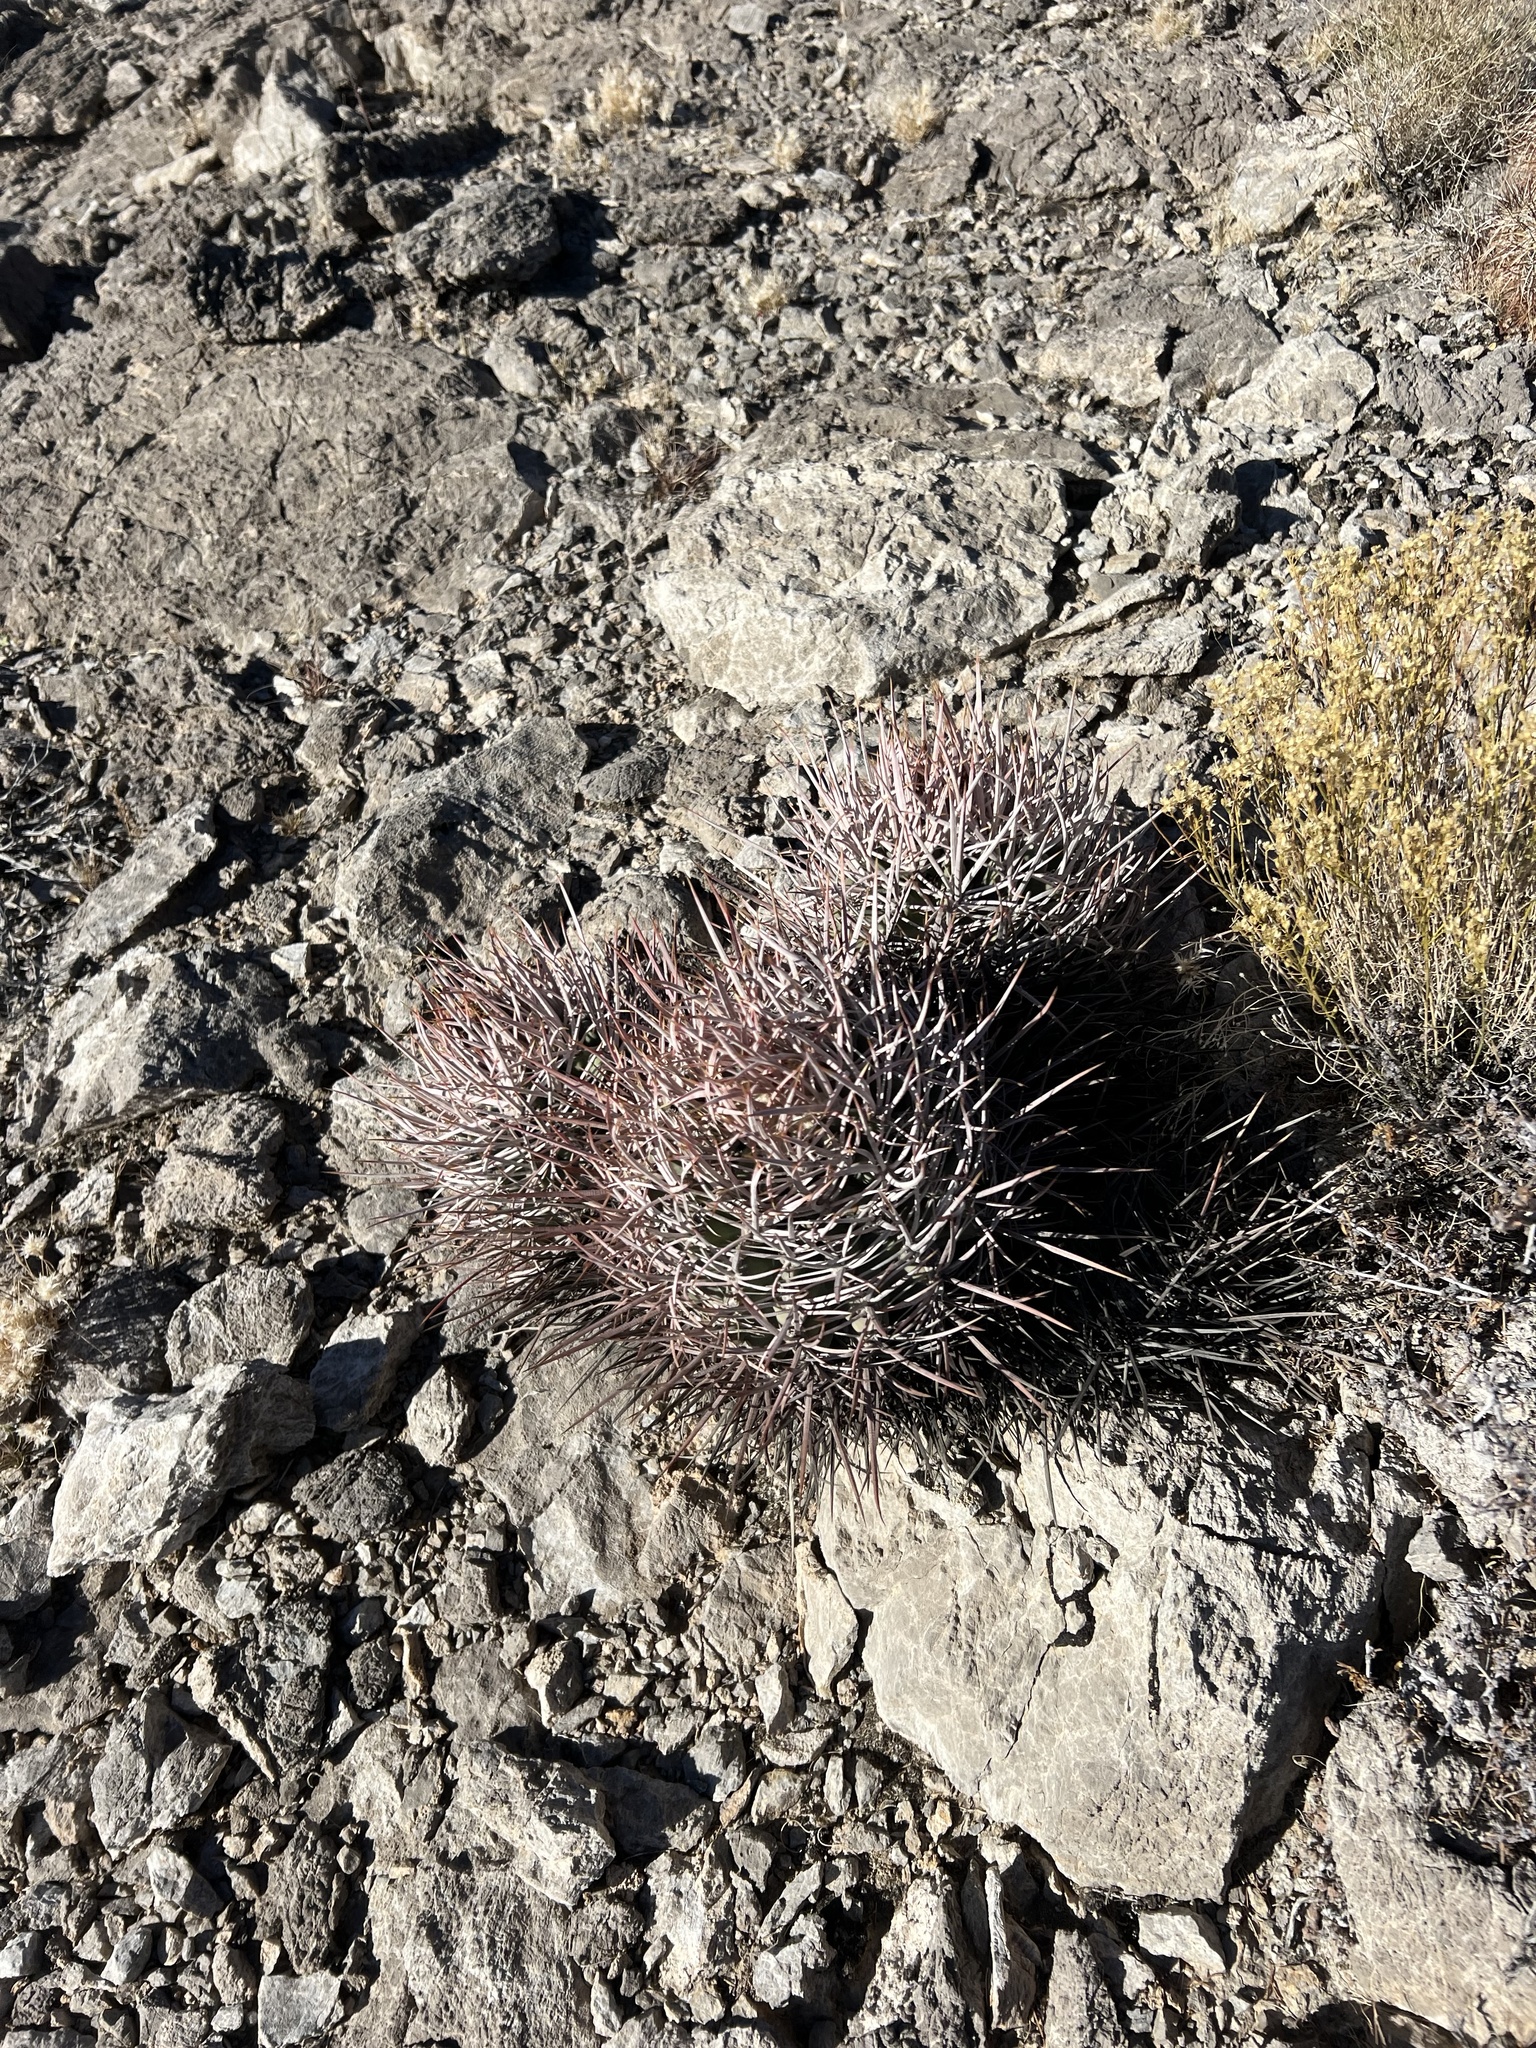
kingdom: Plantae
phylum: Tracheophyta
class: Magnoliopsida
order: Caryophyllales
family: Cactaceae
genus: Echinocactus
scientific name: Echinocactus polycephalus
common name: Cottontop cactus
